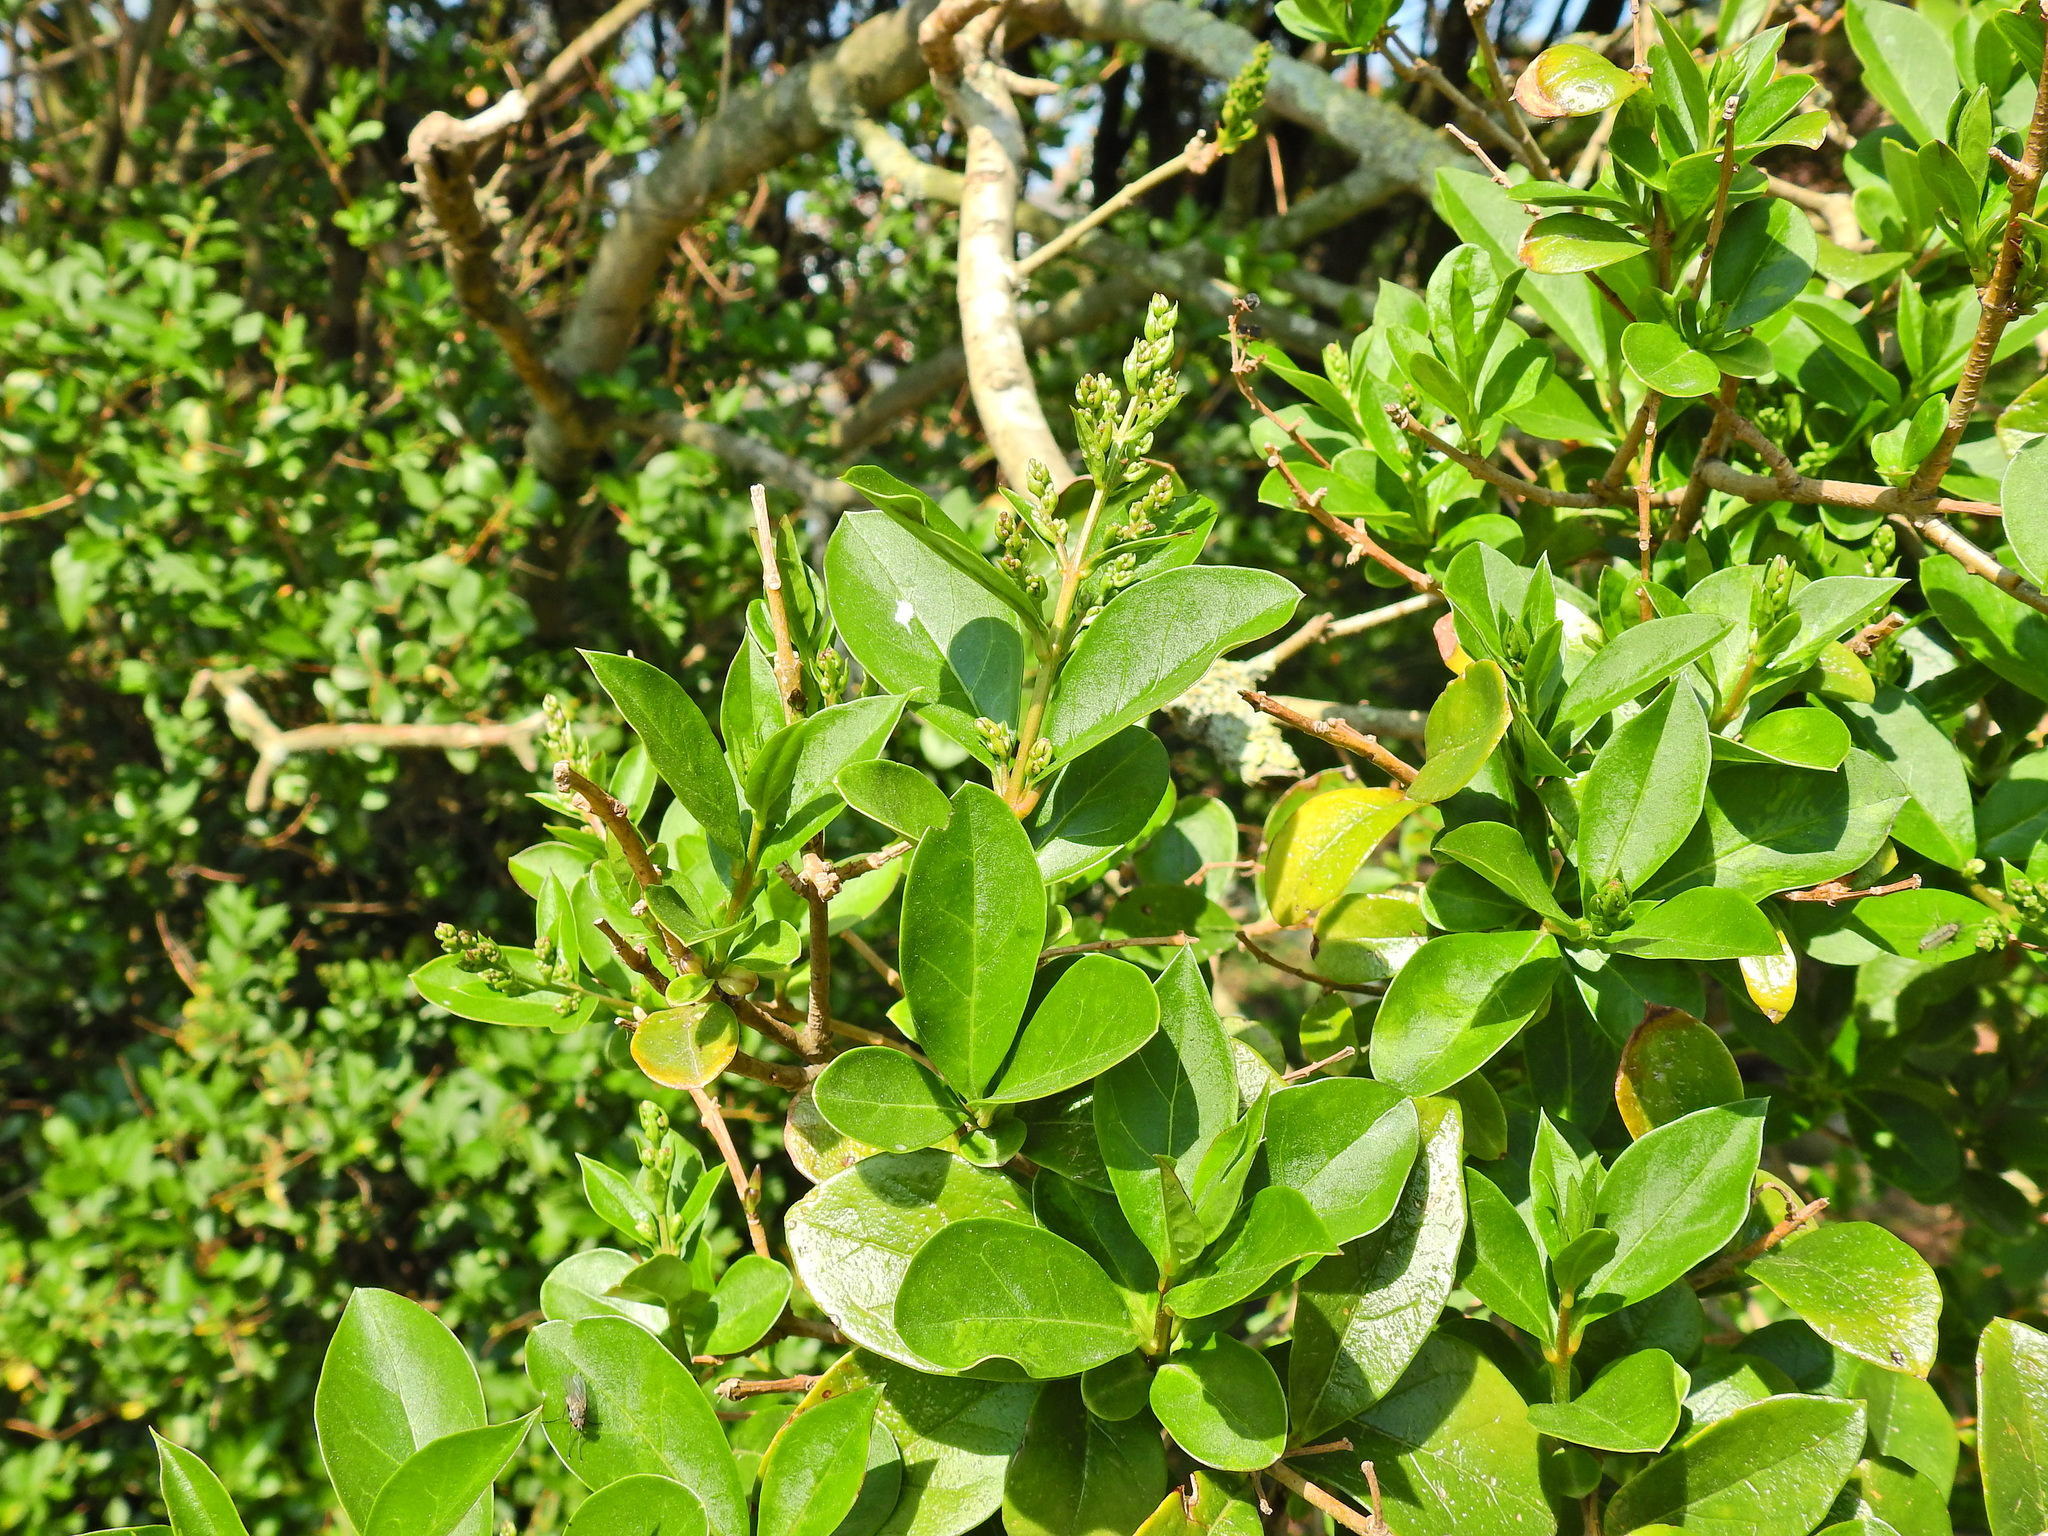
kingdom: Plantae
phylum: Tracheophyta
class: Magnoliopsida
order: Lamiales
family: Oleaceae
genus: Ligustrum
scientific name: Ligustrum ovalifolium
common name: California privet
